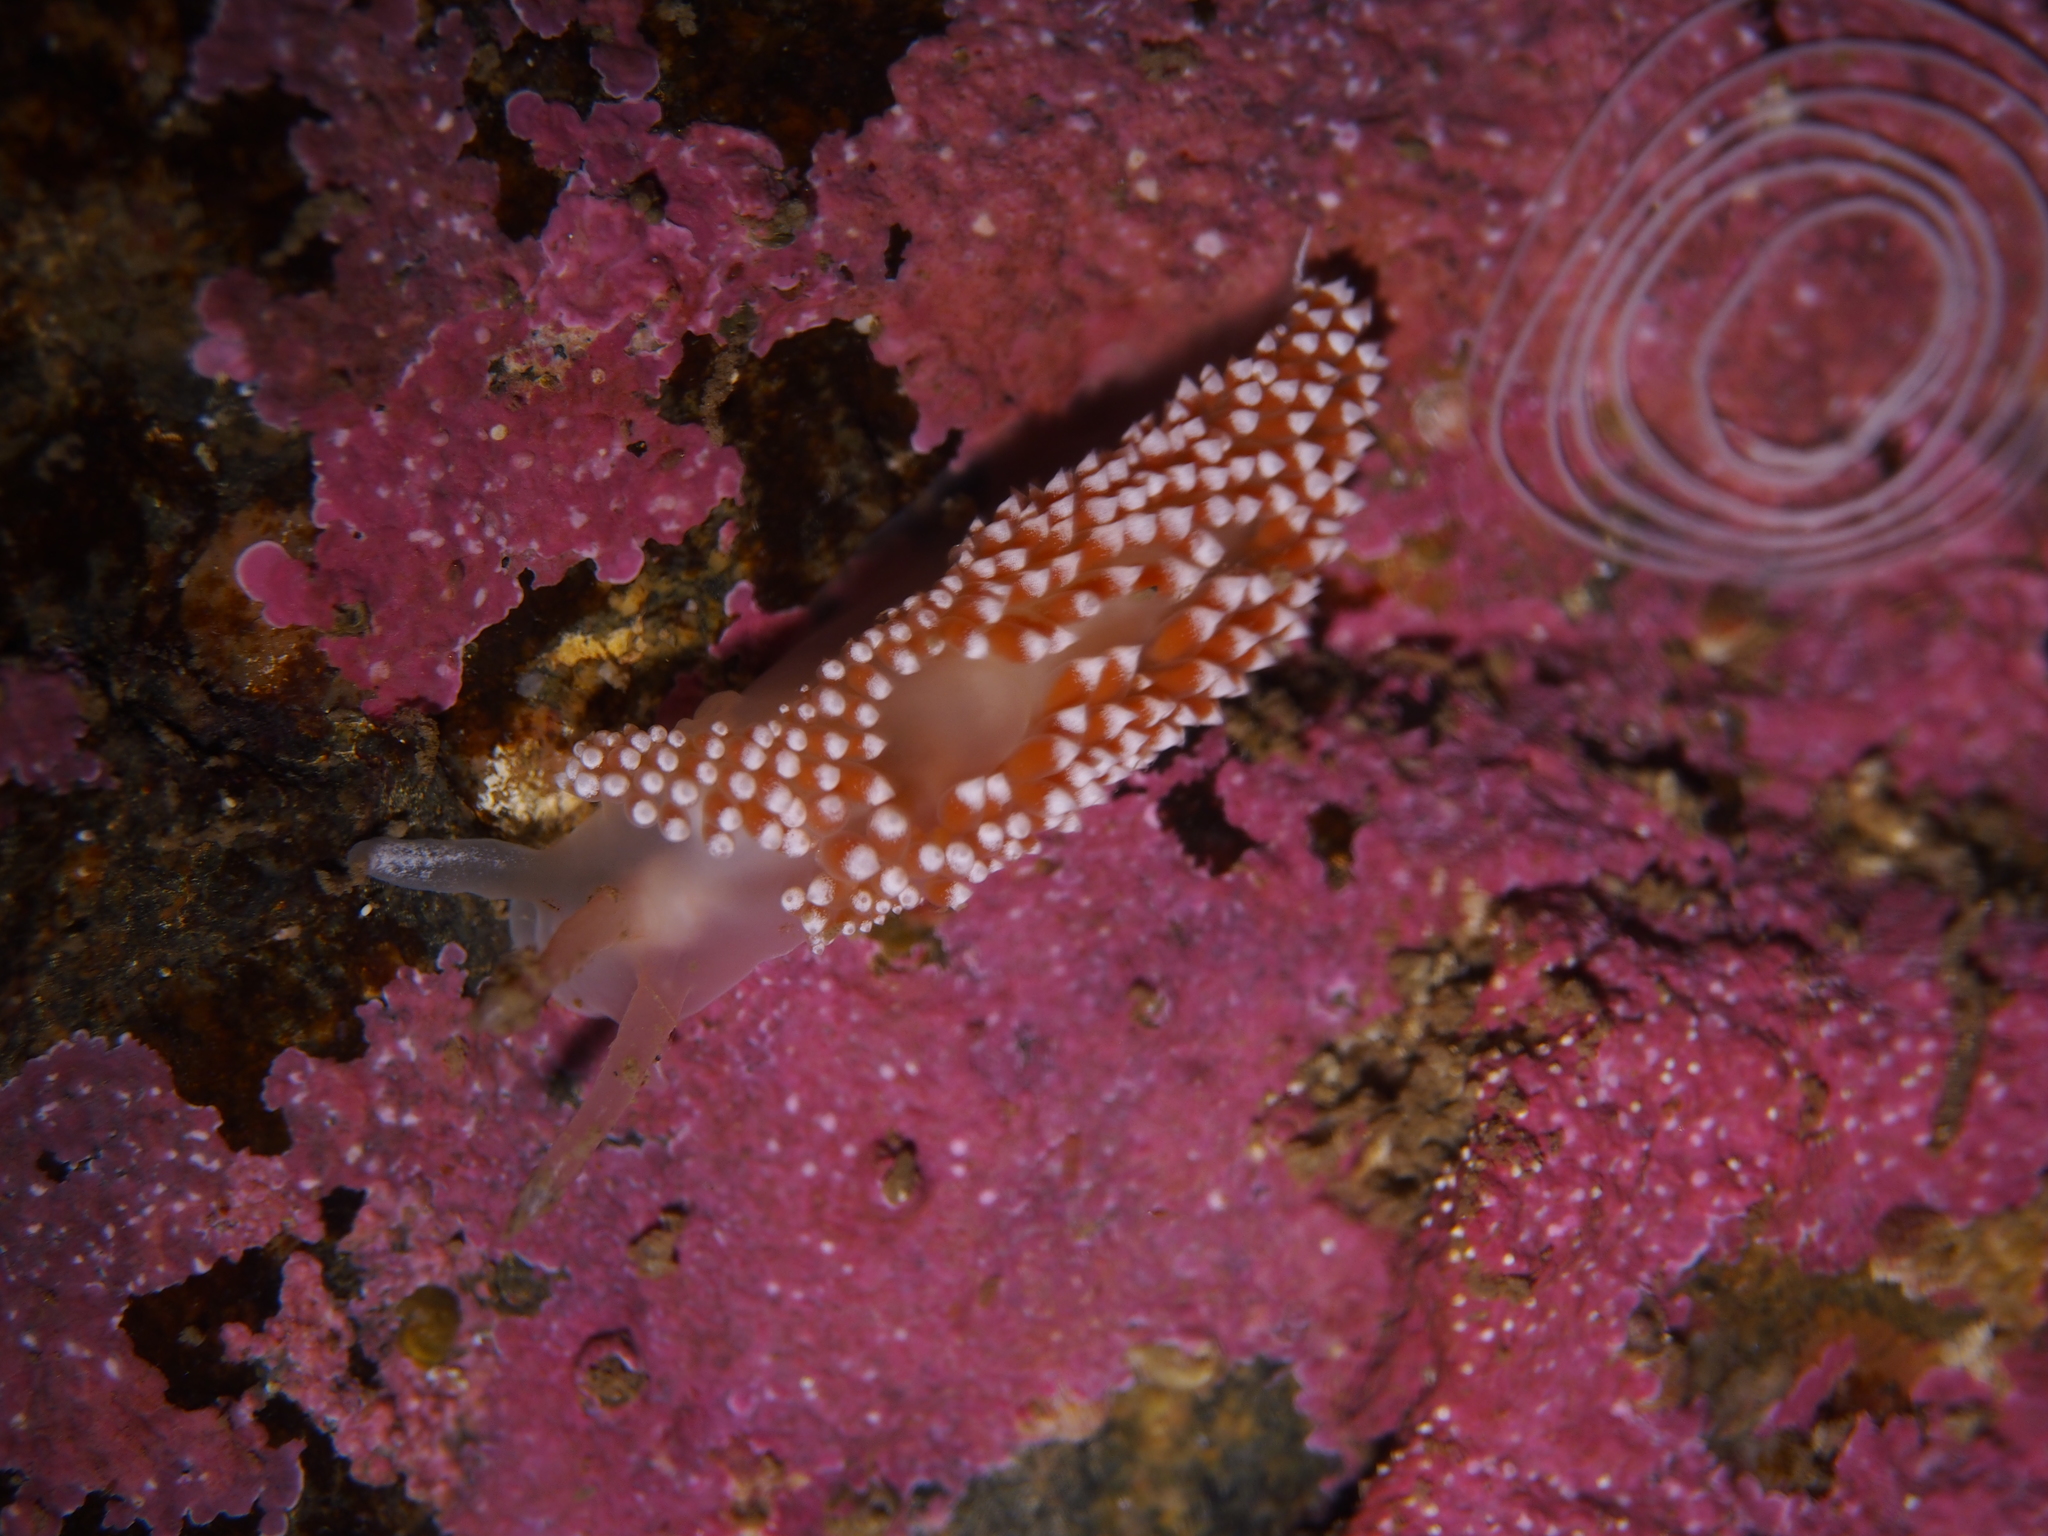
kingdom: Animalia
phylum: Mollusca
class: Gastropoda
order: Nudibranchia
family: Coryphellidae
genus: Coryphella
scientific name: Coryphella verrucosa
